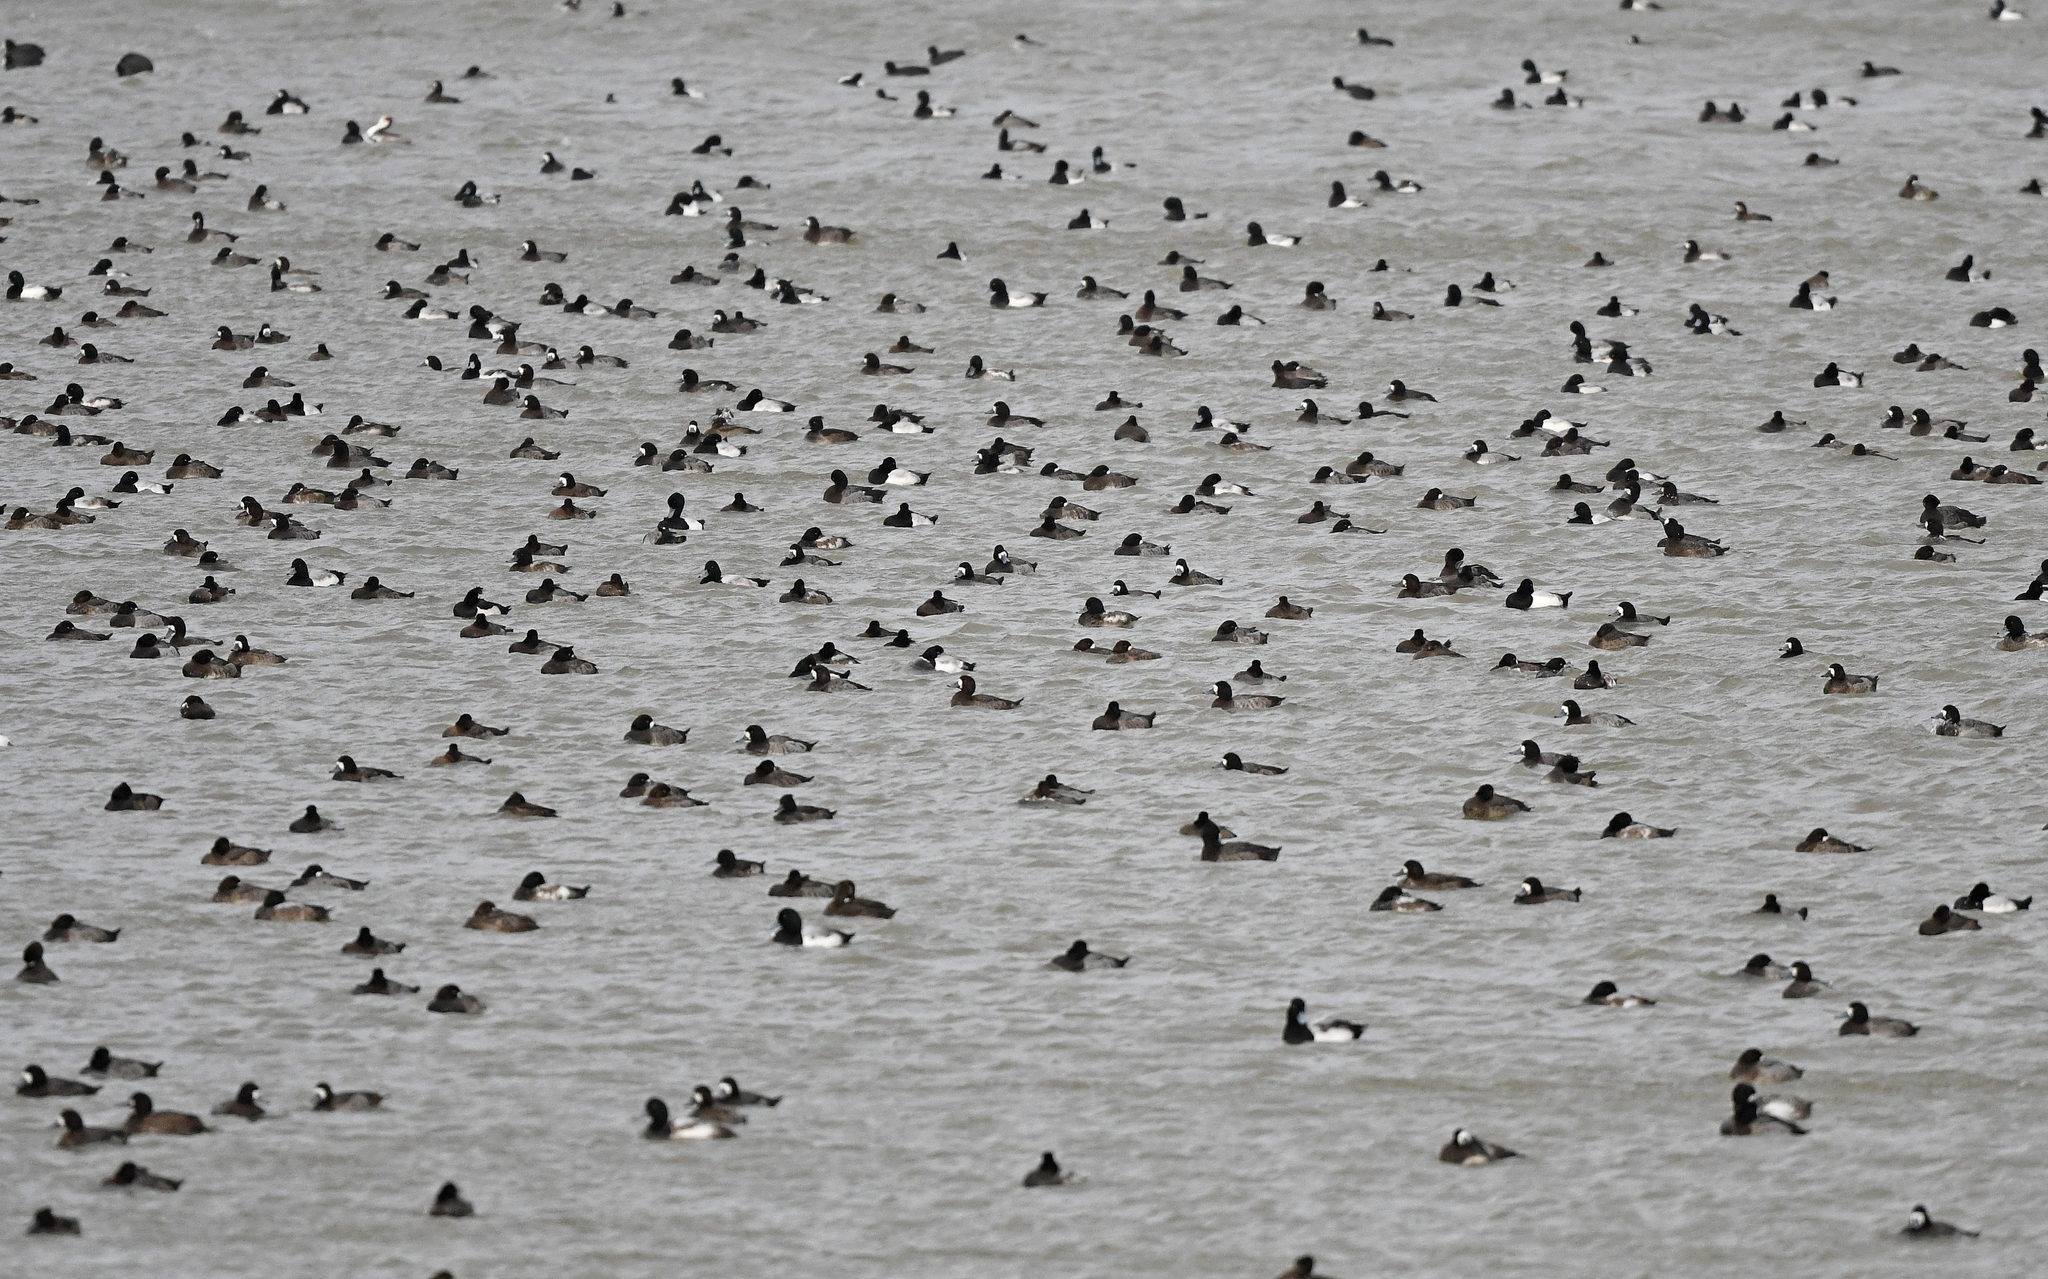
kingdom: Animalia
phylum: Chordata
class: Aves
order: Anseriformes
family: Anatidae
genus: Aythya
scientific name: Aythya marila
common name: Greater scaup
